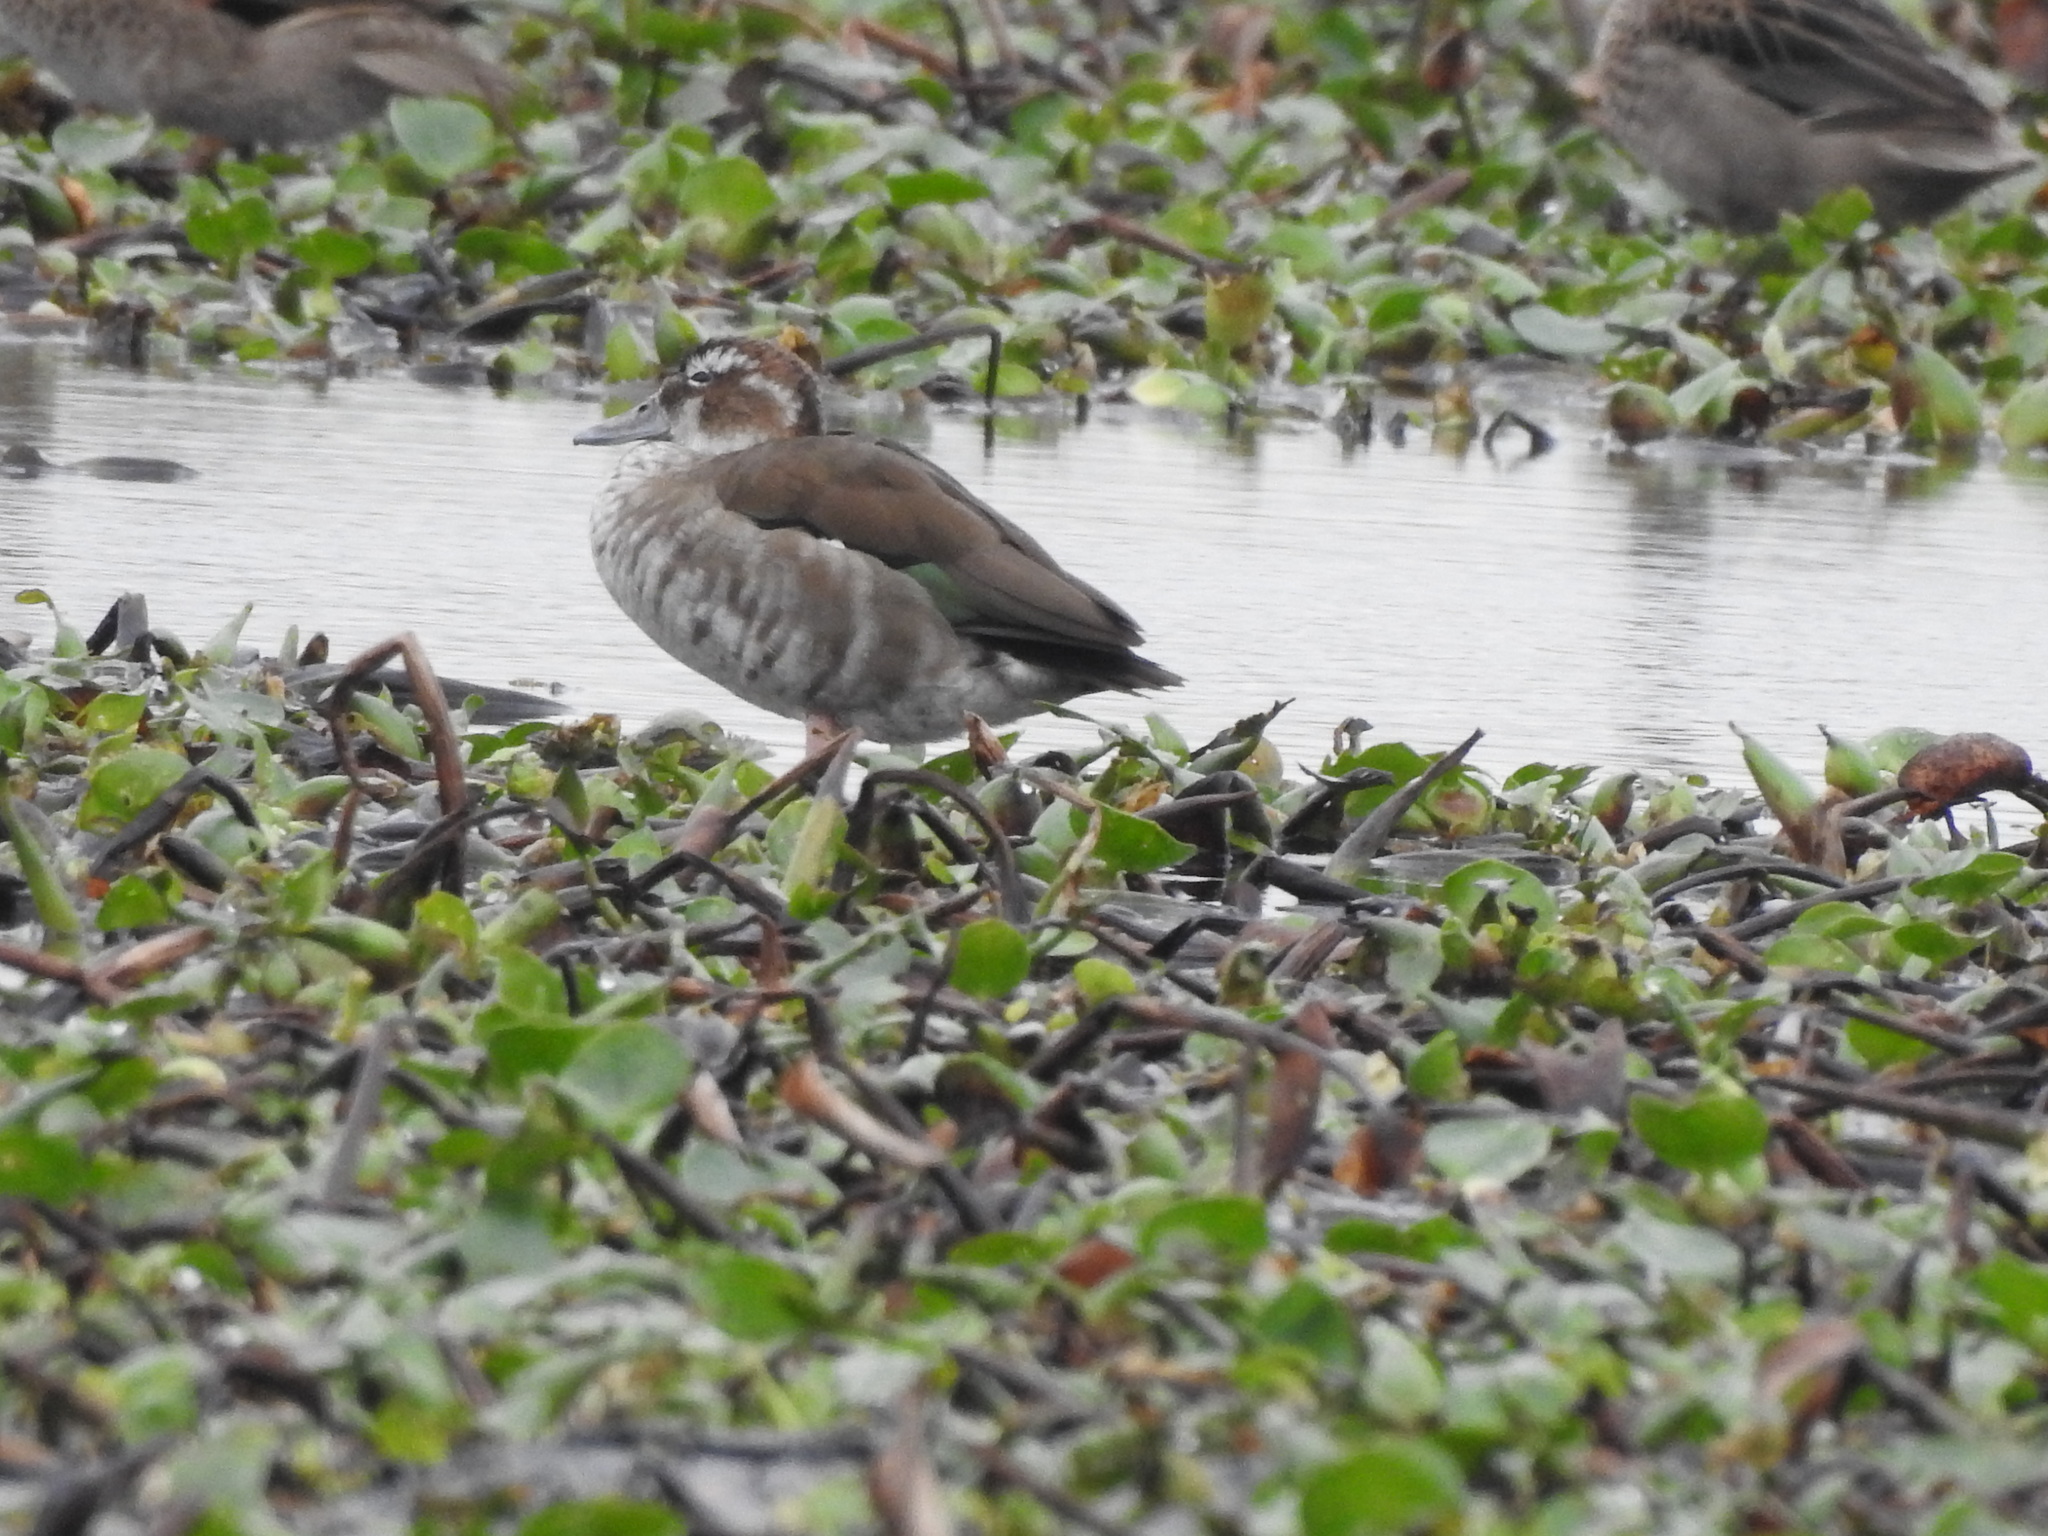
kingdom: Animalia
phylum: Chordata
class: Aves
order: Anseriformes
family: Anatidae
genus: Callonetta
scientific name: Callonetta leucophrys
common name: Ringed teal
